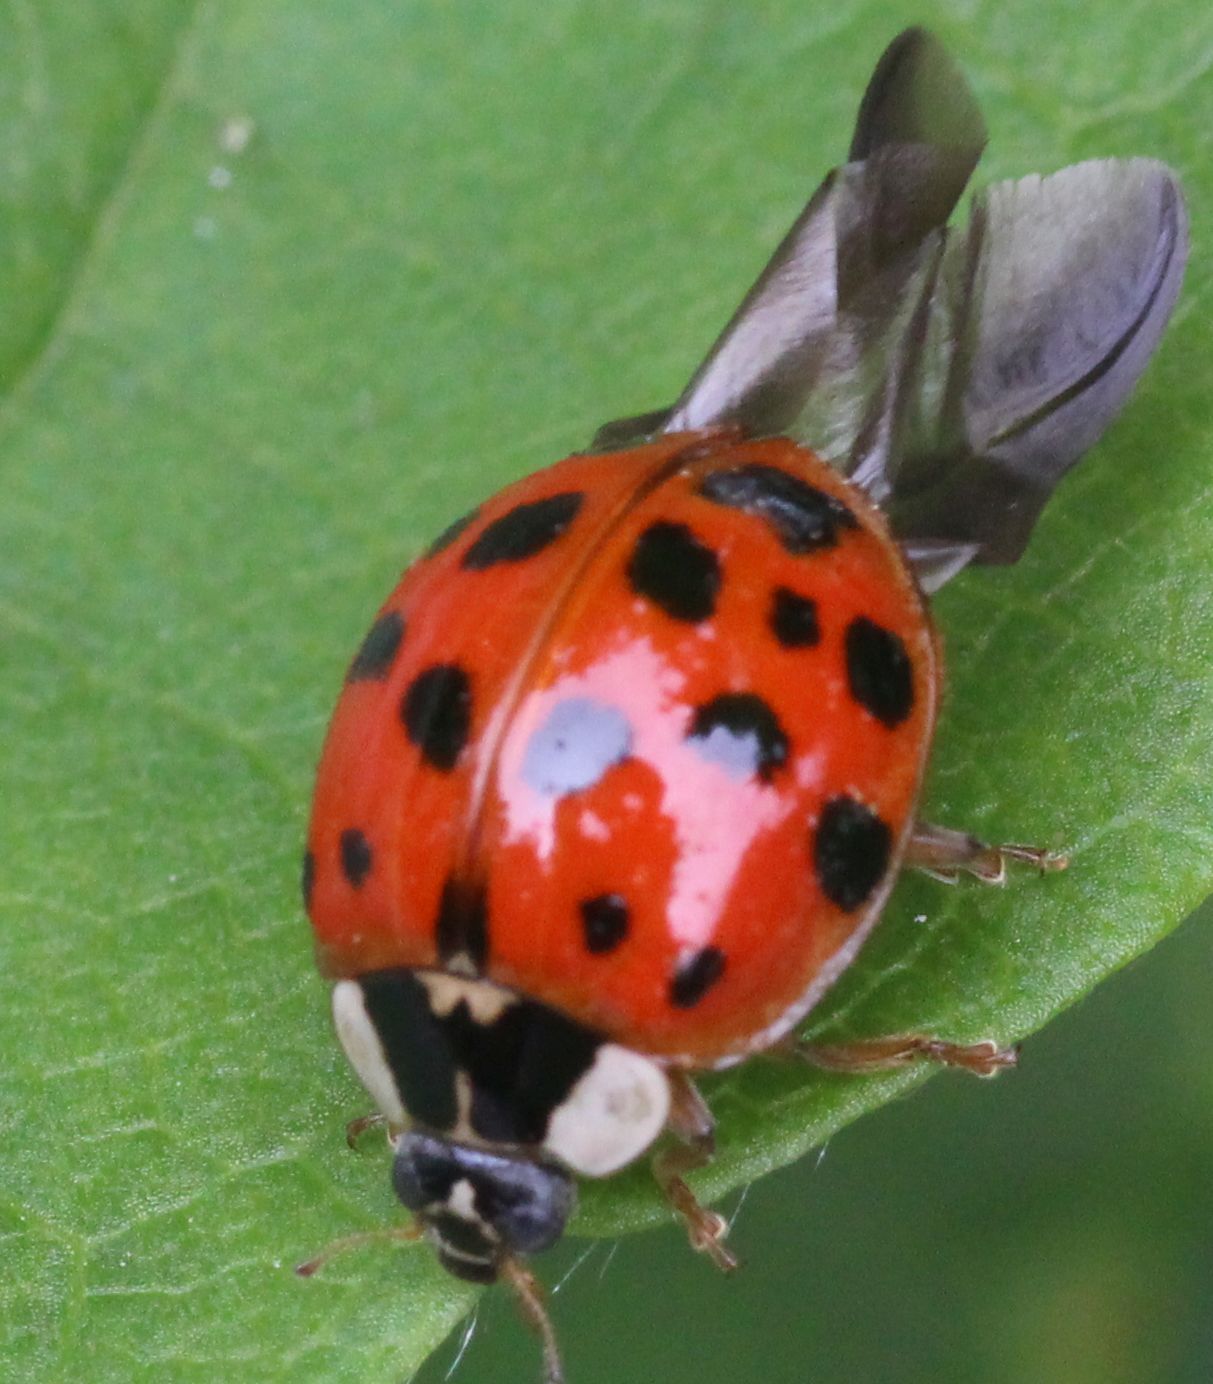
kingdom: Animalia
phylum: Arthropoda
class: Insecta
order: Coleoptera
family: Coccinellidae
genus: Harmonia
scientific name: Harmonia axyridis
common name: Harlequin ladybird
